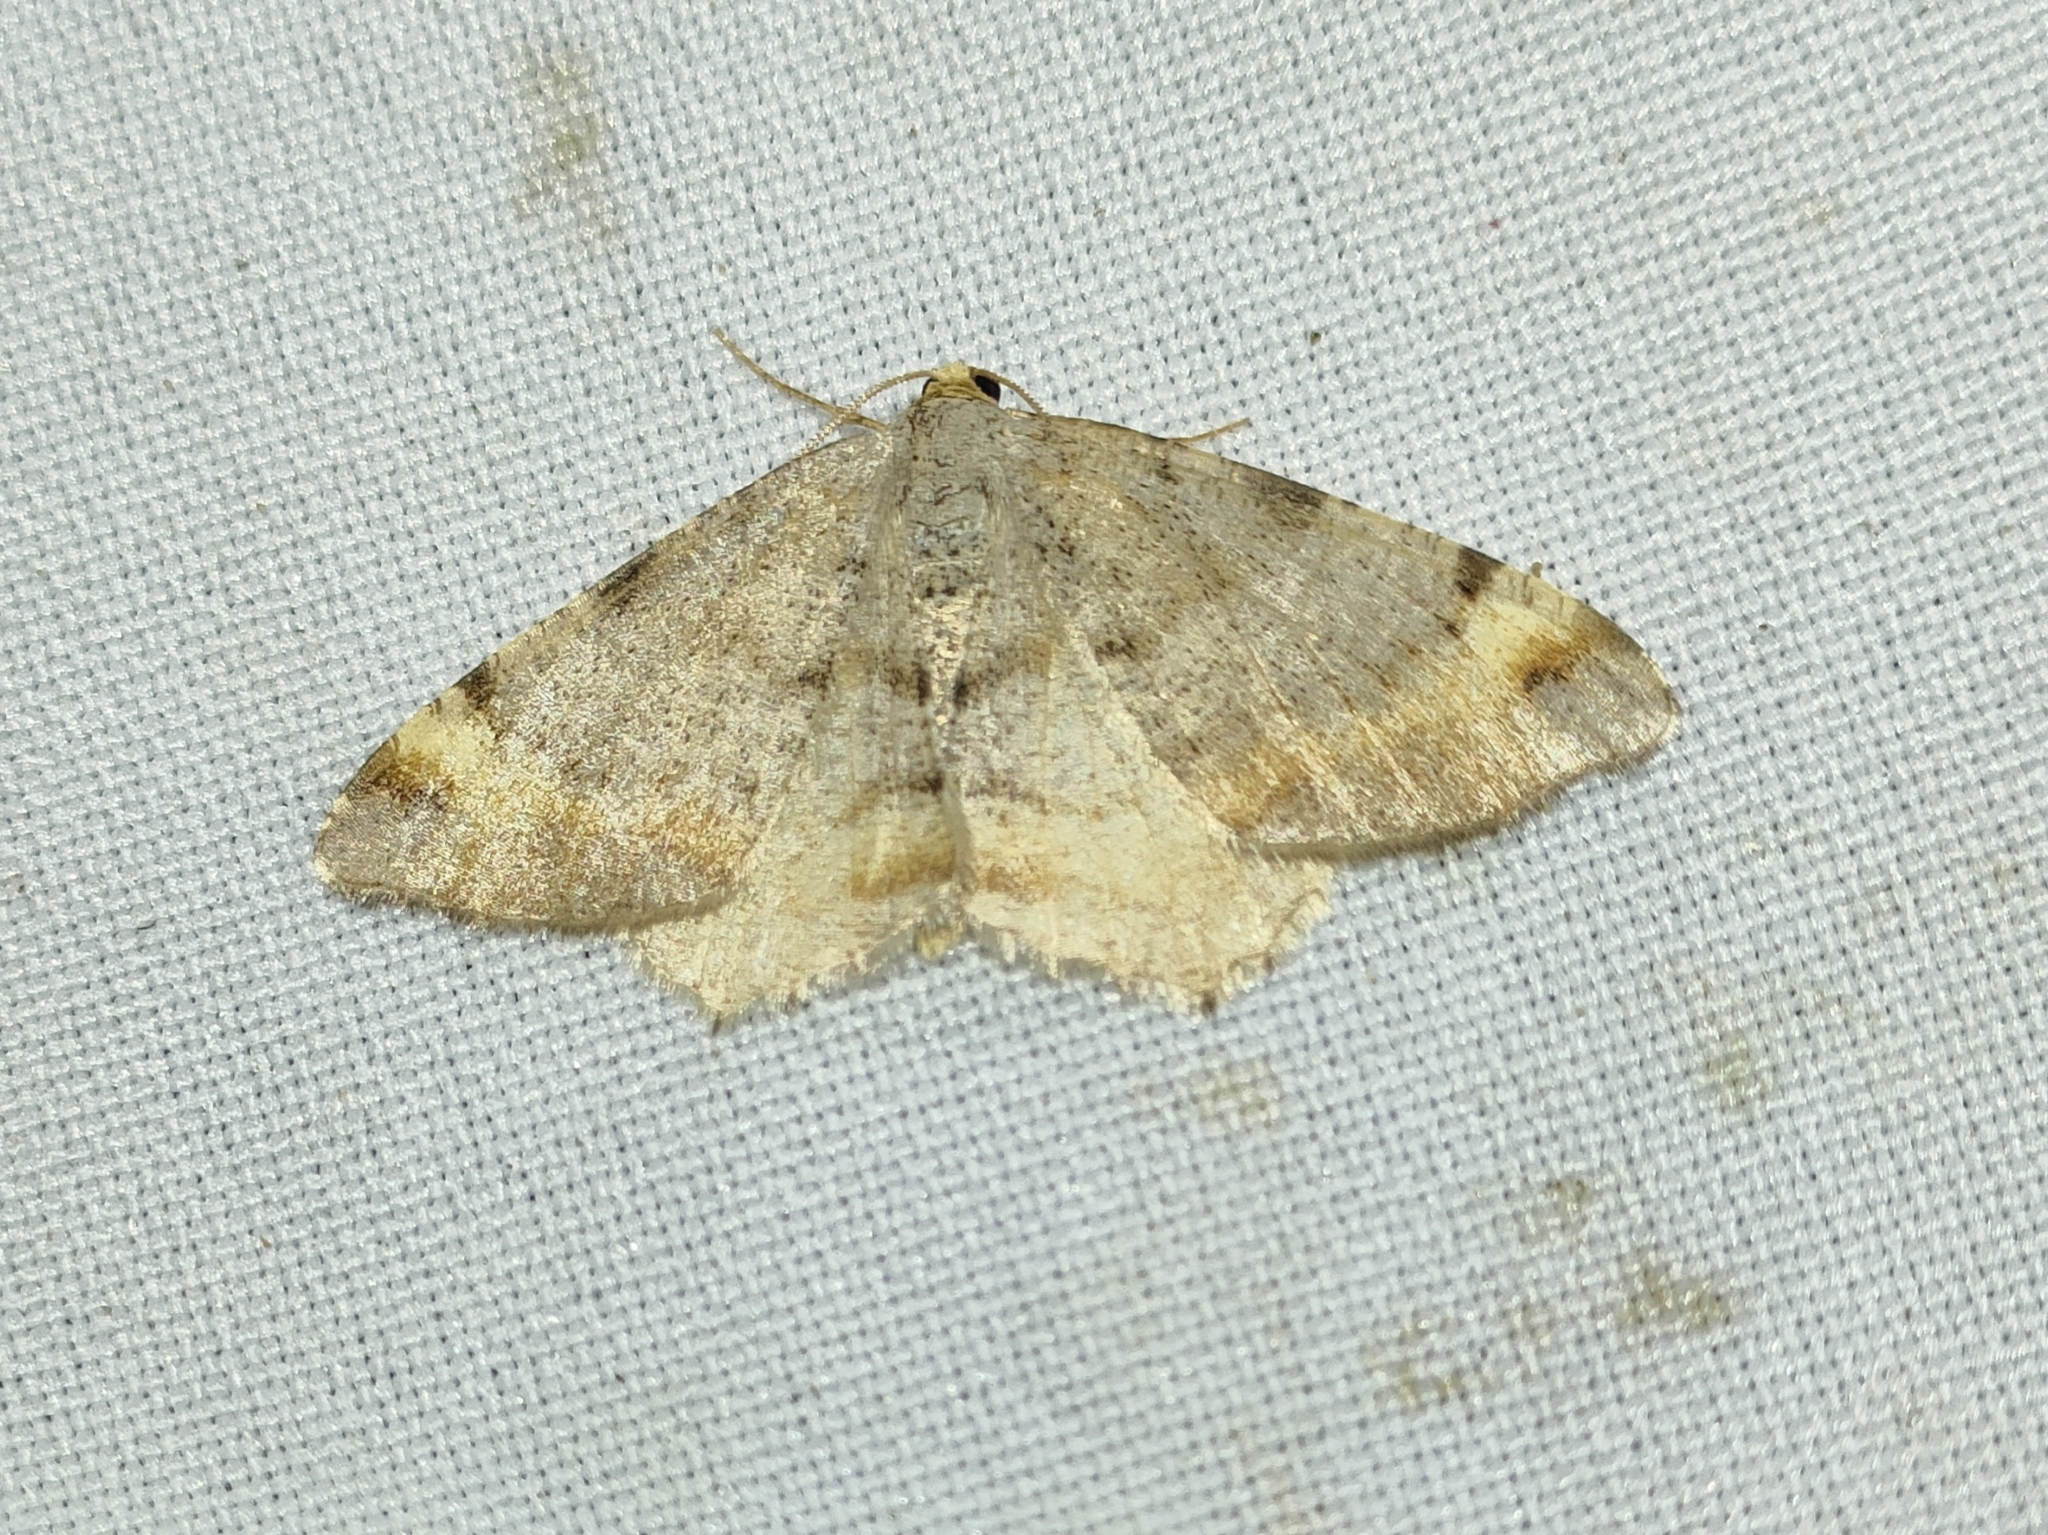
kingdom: Animalia
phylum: Arthropoda
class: Insecta
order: Lepidoptera
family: Geometridae
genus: Macaria
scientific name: Macaria liturata
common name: Tawny-barred angle
